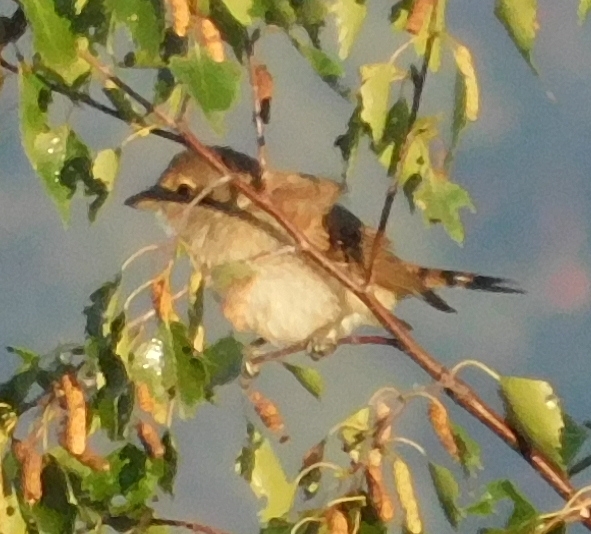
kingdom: Animalia
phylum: Chordata
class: Aves
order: Passeriformes
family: Laniidae
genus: Lanius
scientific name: Lanius collurio
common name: Red-backed shrike
